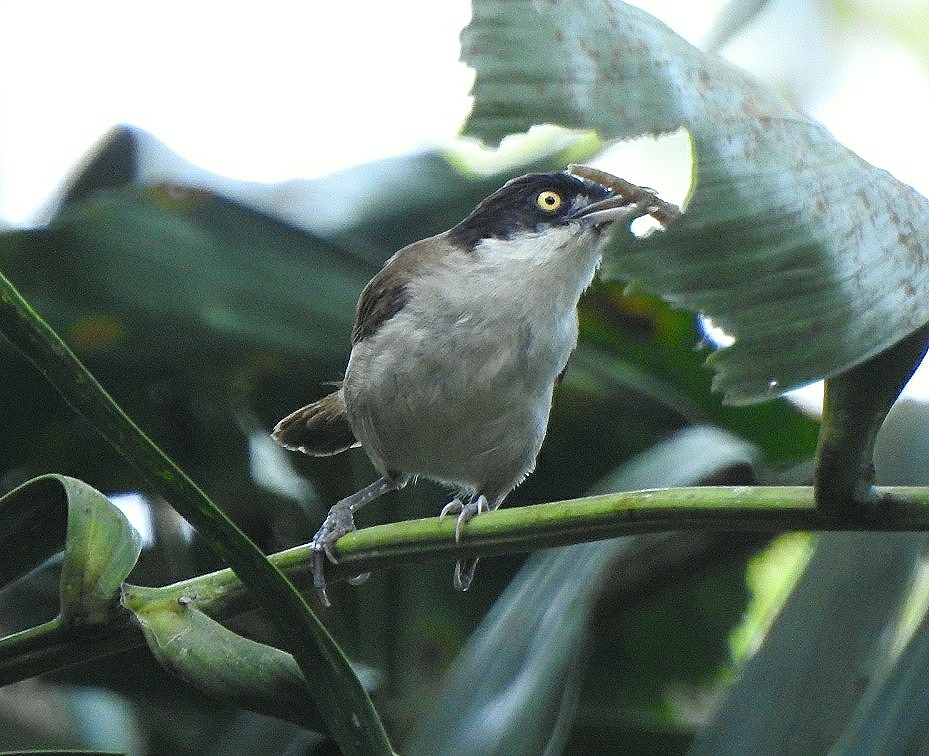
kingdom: Animalia
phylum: Chordata
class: Aves
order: Passeriformes
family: Timaliidae
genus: Rhopocichla
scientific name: Rhopocichla atriceps
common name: Dark-fronted babbler
